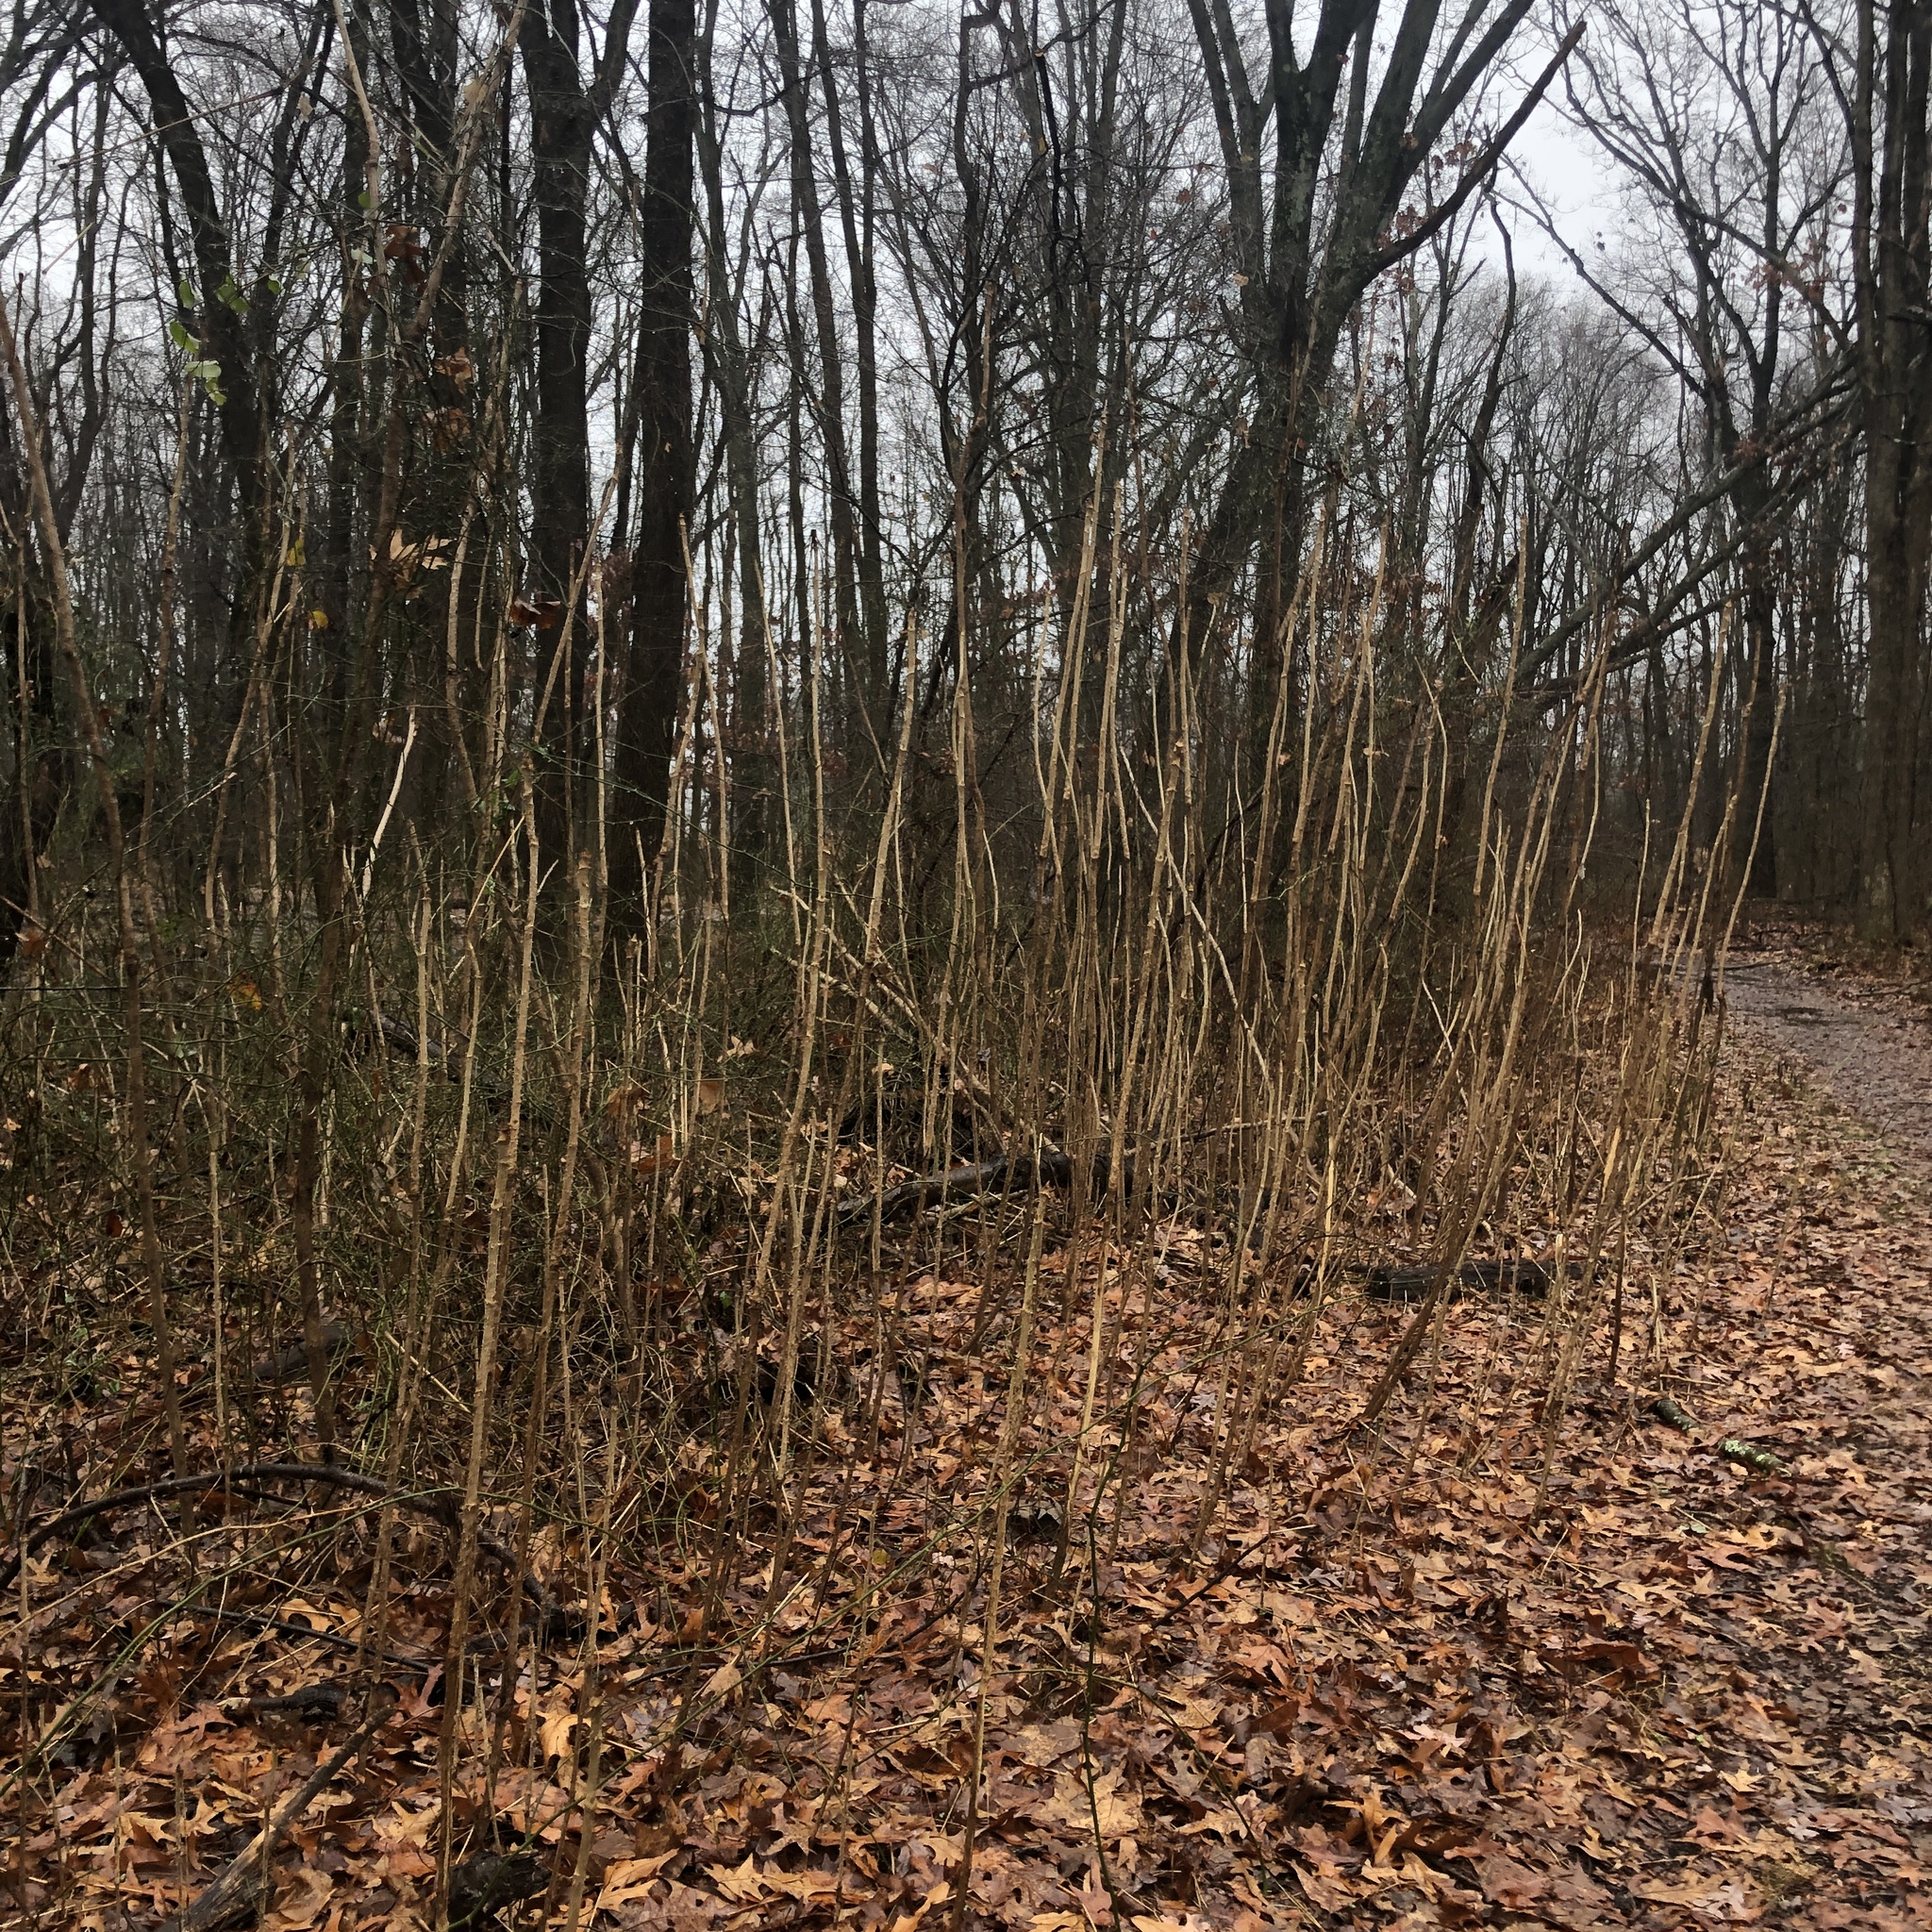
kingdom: Plantae
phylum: Tracheophyta
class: Magnoliopsida
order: Apiales
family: Araliaceae
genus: Aralia
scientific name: Aralia elata
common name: Japanese angelica-tree
